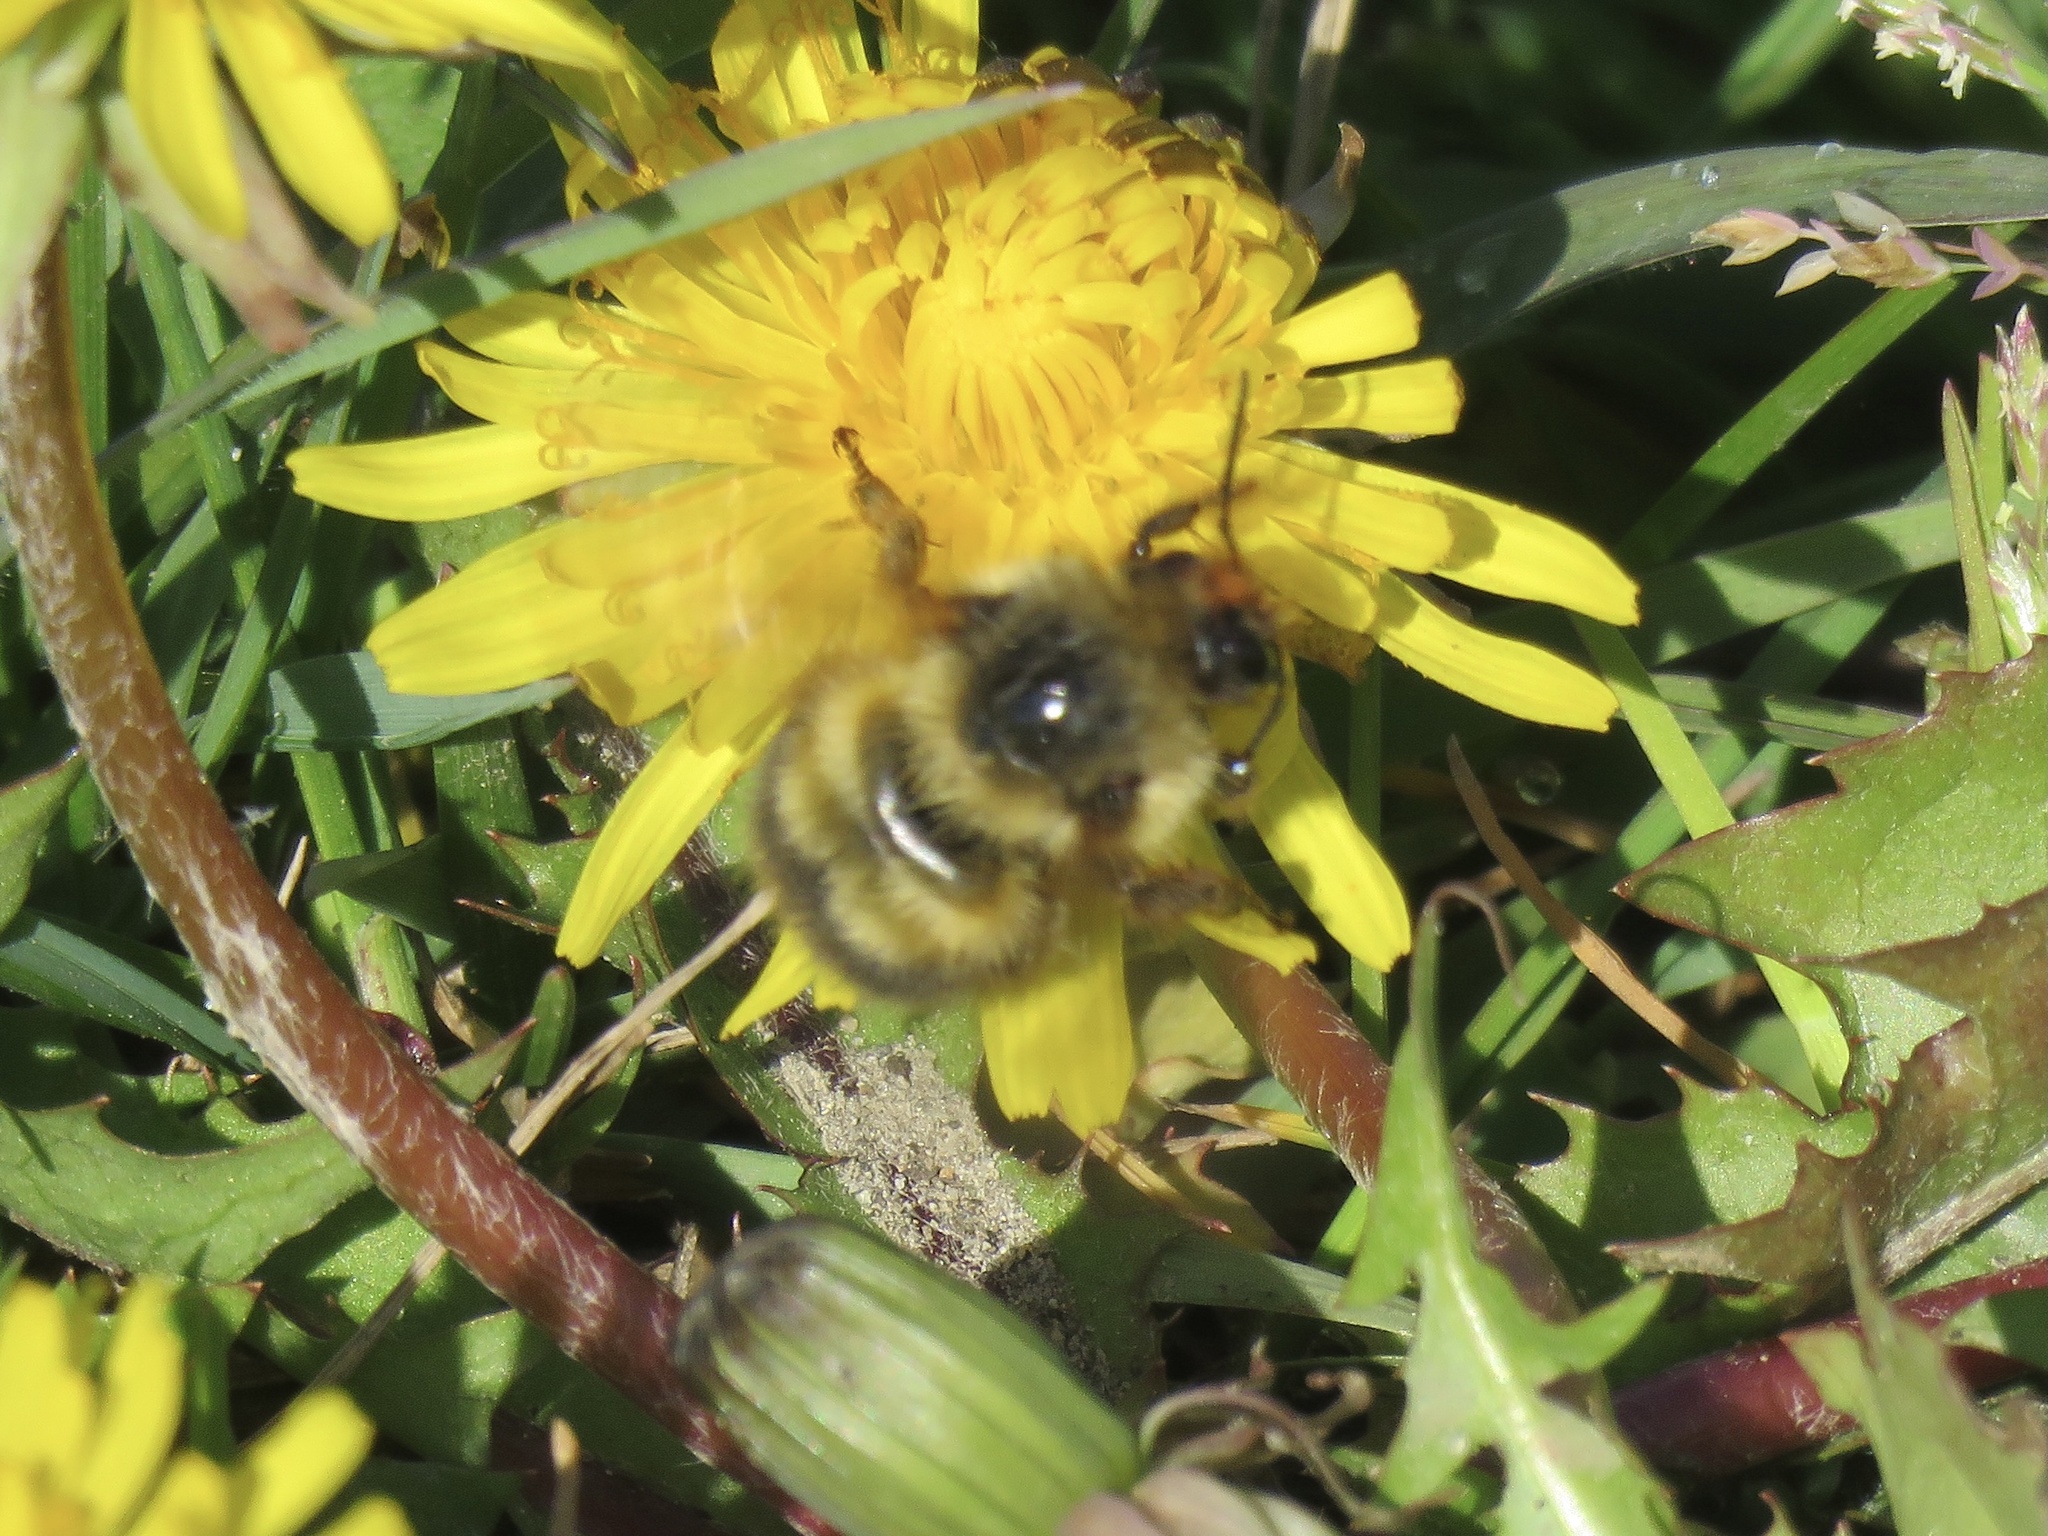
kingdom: Animalia
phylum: Arthropoda
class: Insecta
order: Hymenoptera
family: Apidae
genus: Bombus
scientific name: Bombus mixtus
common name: Fuzzy-horned bumble bee
